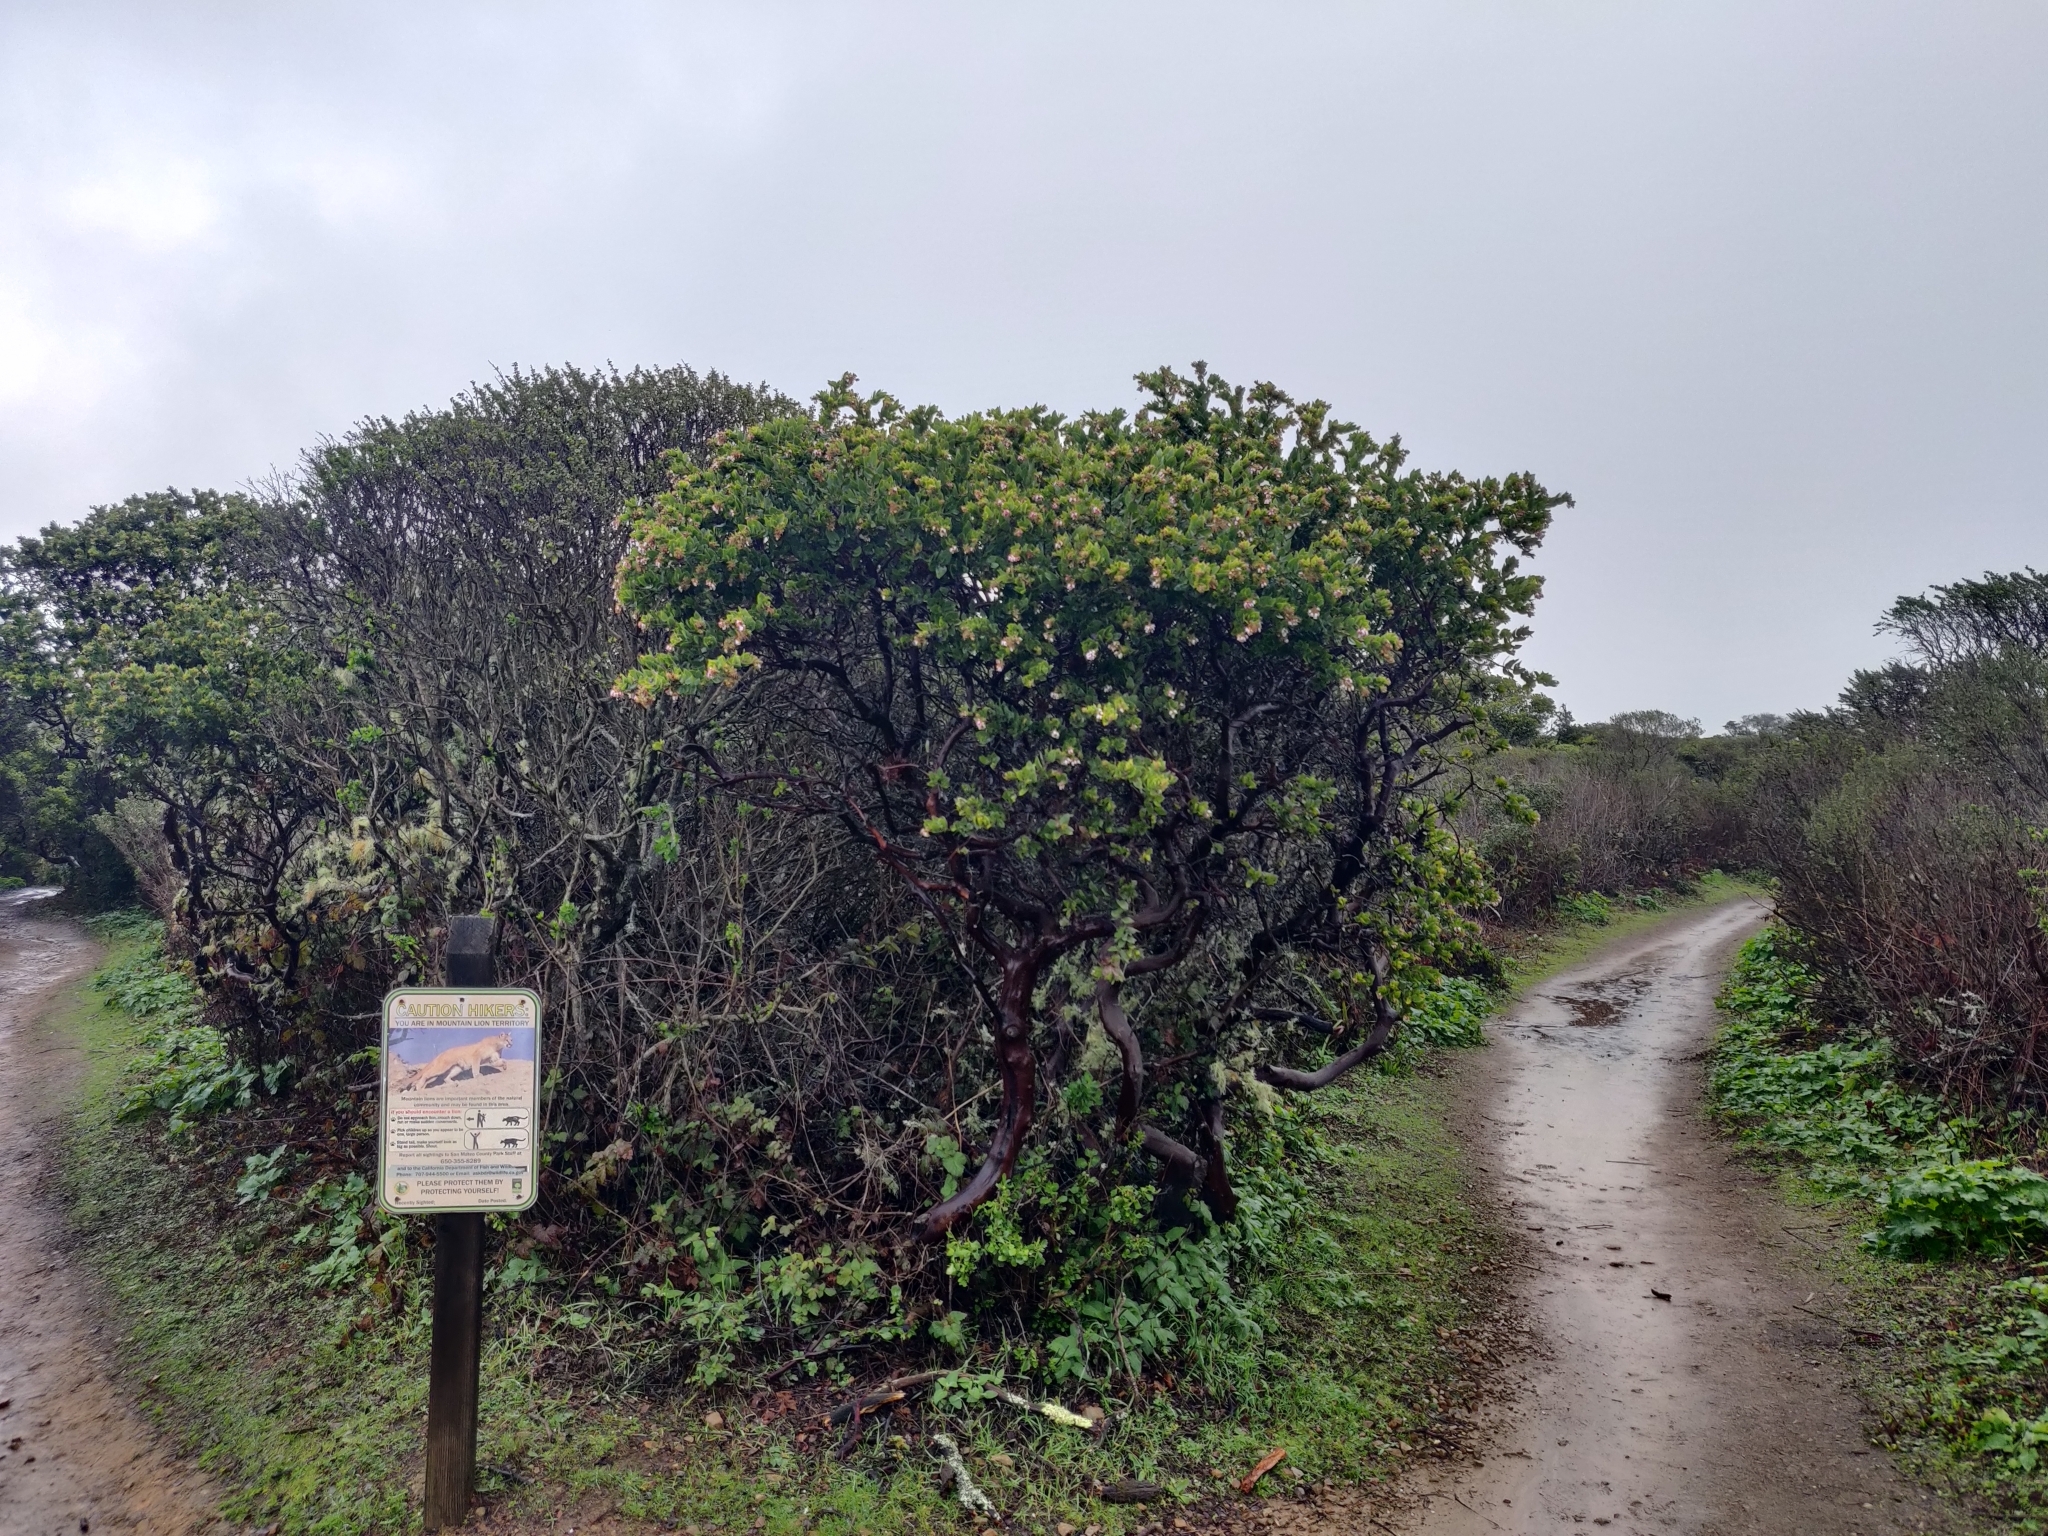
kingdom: Plantae
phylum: Tracheophyta
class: Magnoliopsida
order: Ericales
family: Ericaceae
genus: Arctostaphylos
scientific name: Arctostaphylos montaraensis
